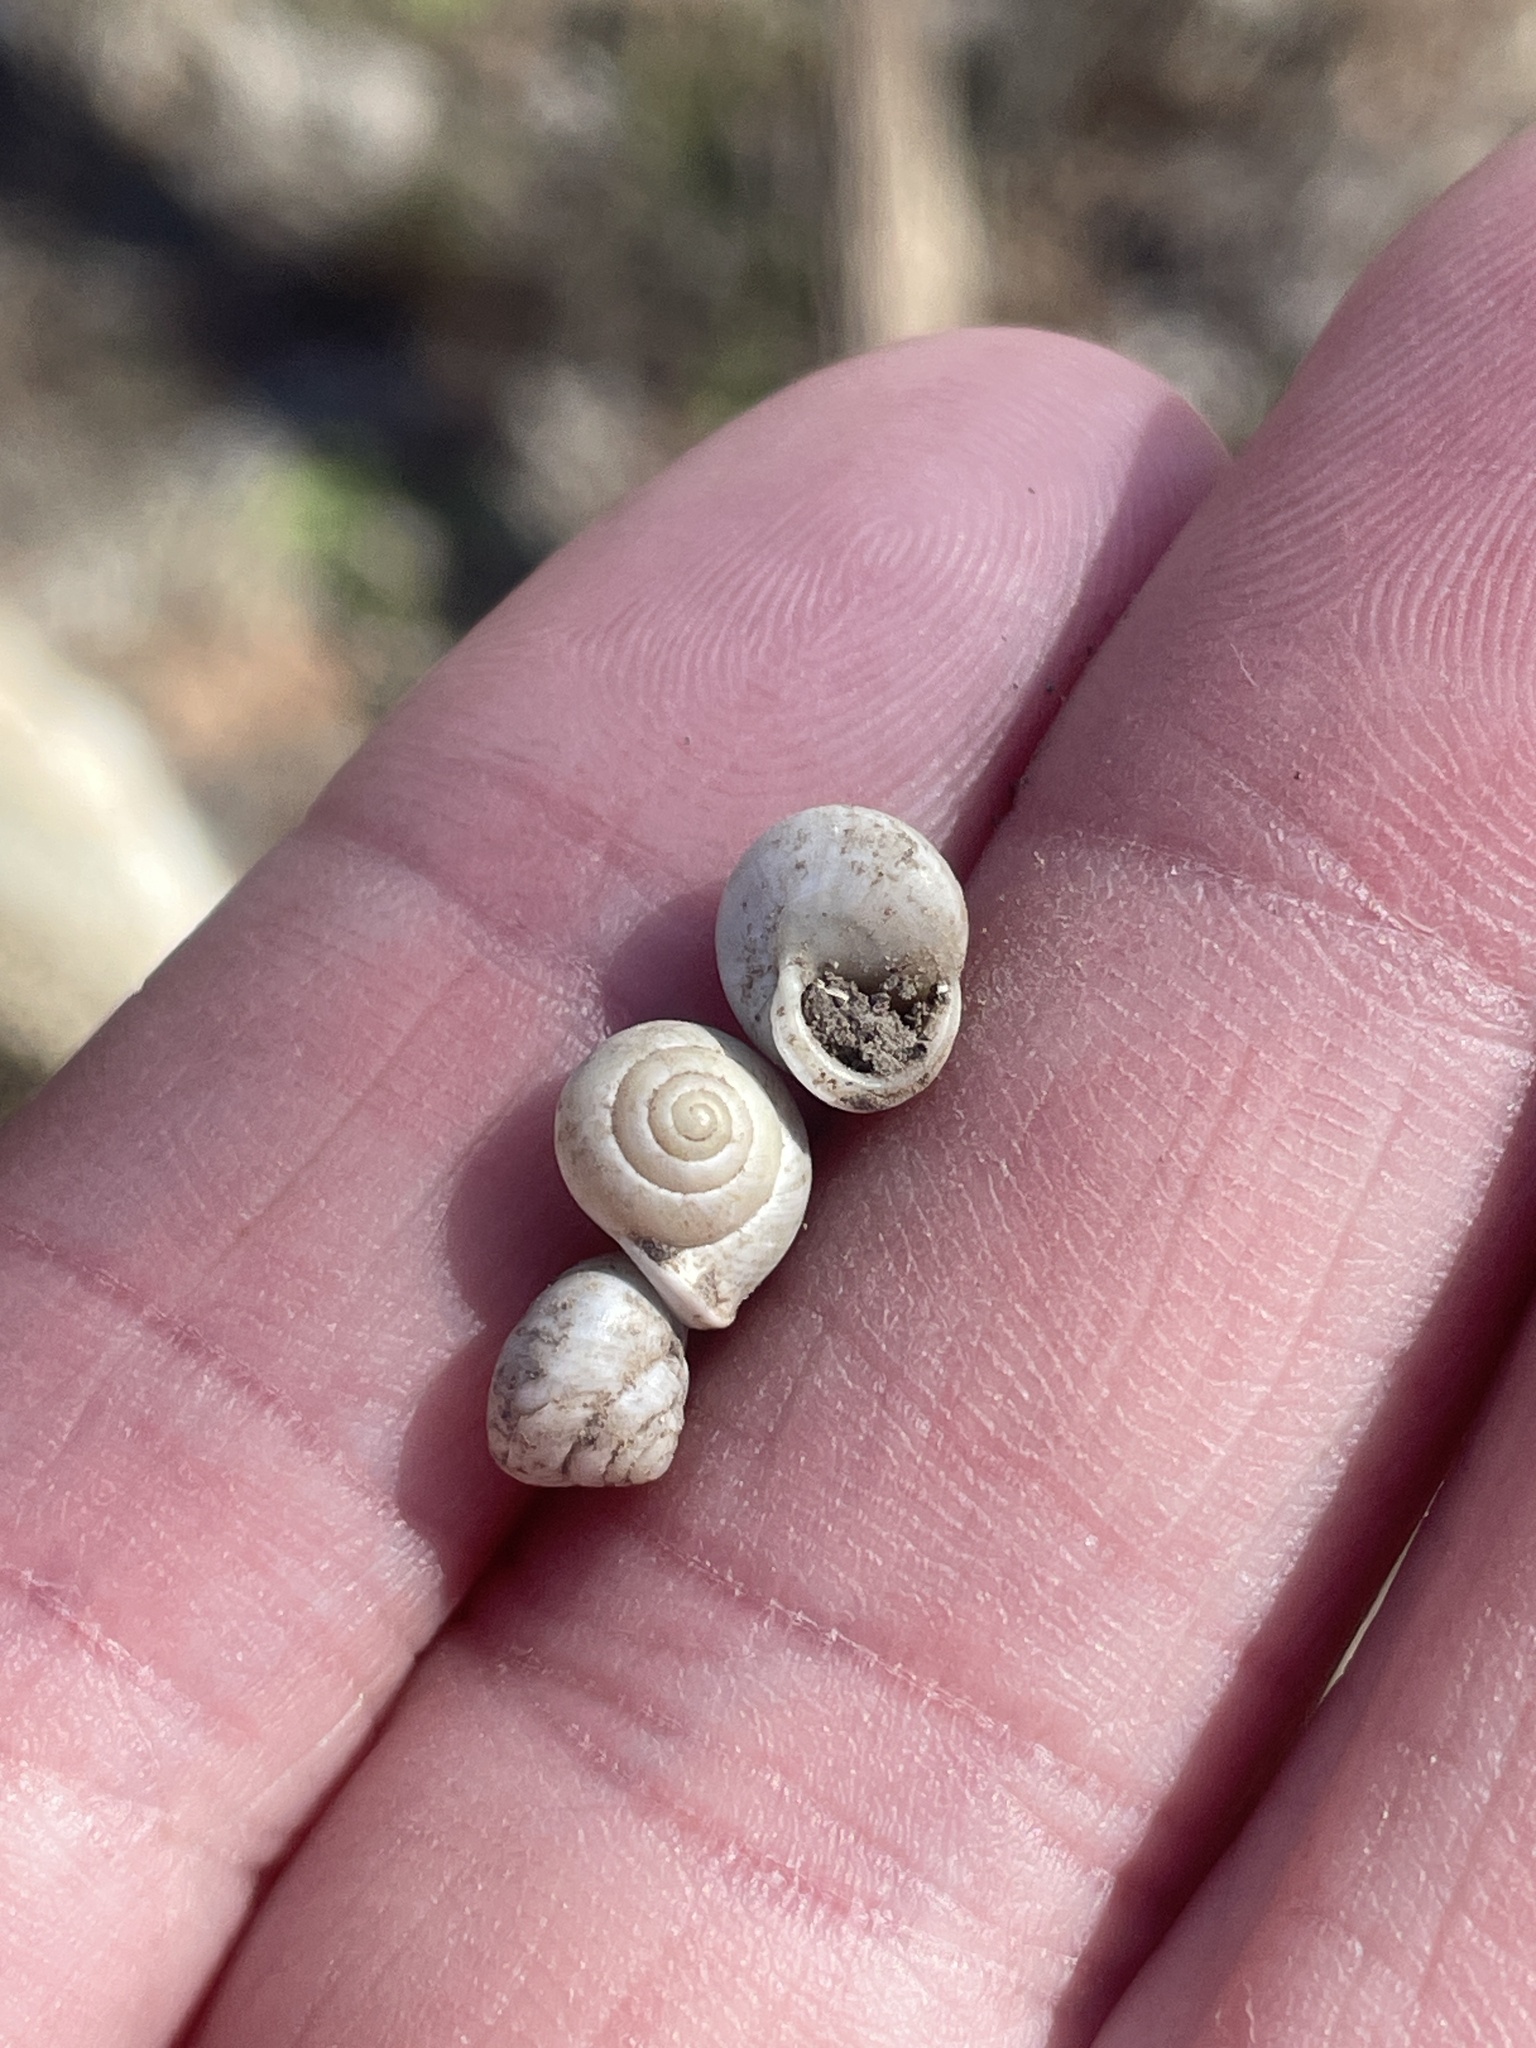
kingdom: Animalia
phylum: Mollusca
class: Gastropoda
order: Cycloneritida
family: Helicinidae
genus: Helicina
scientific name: Helicina orbiculata
